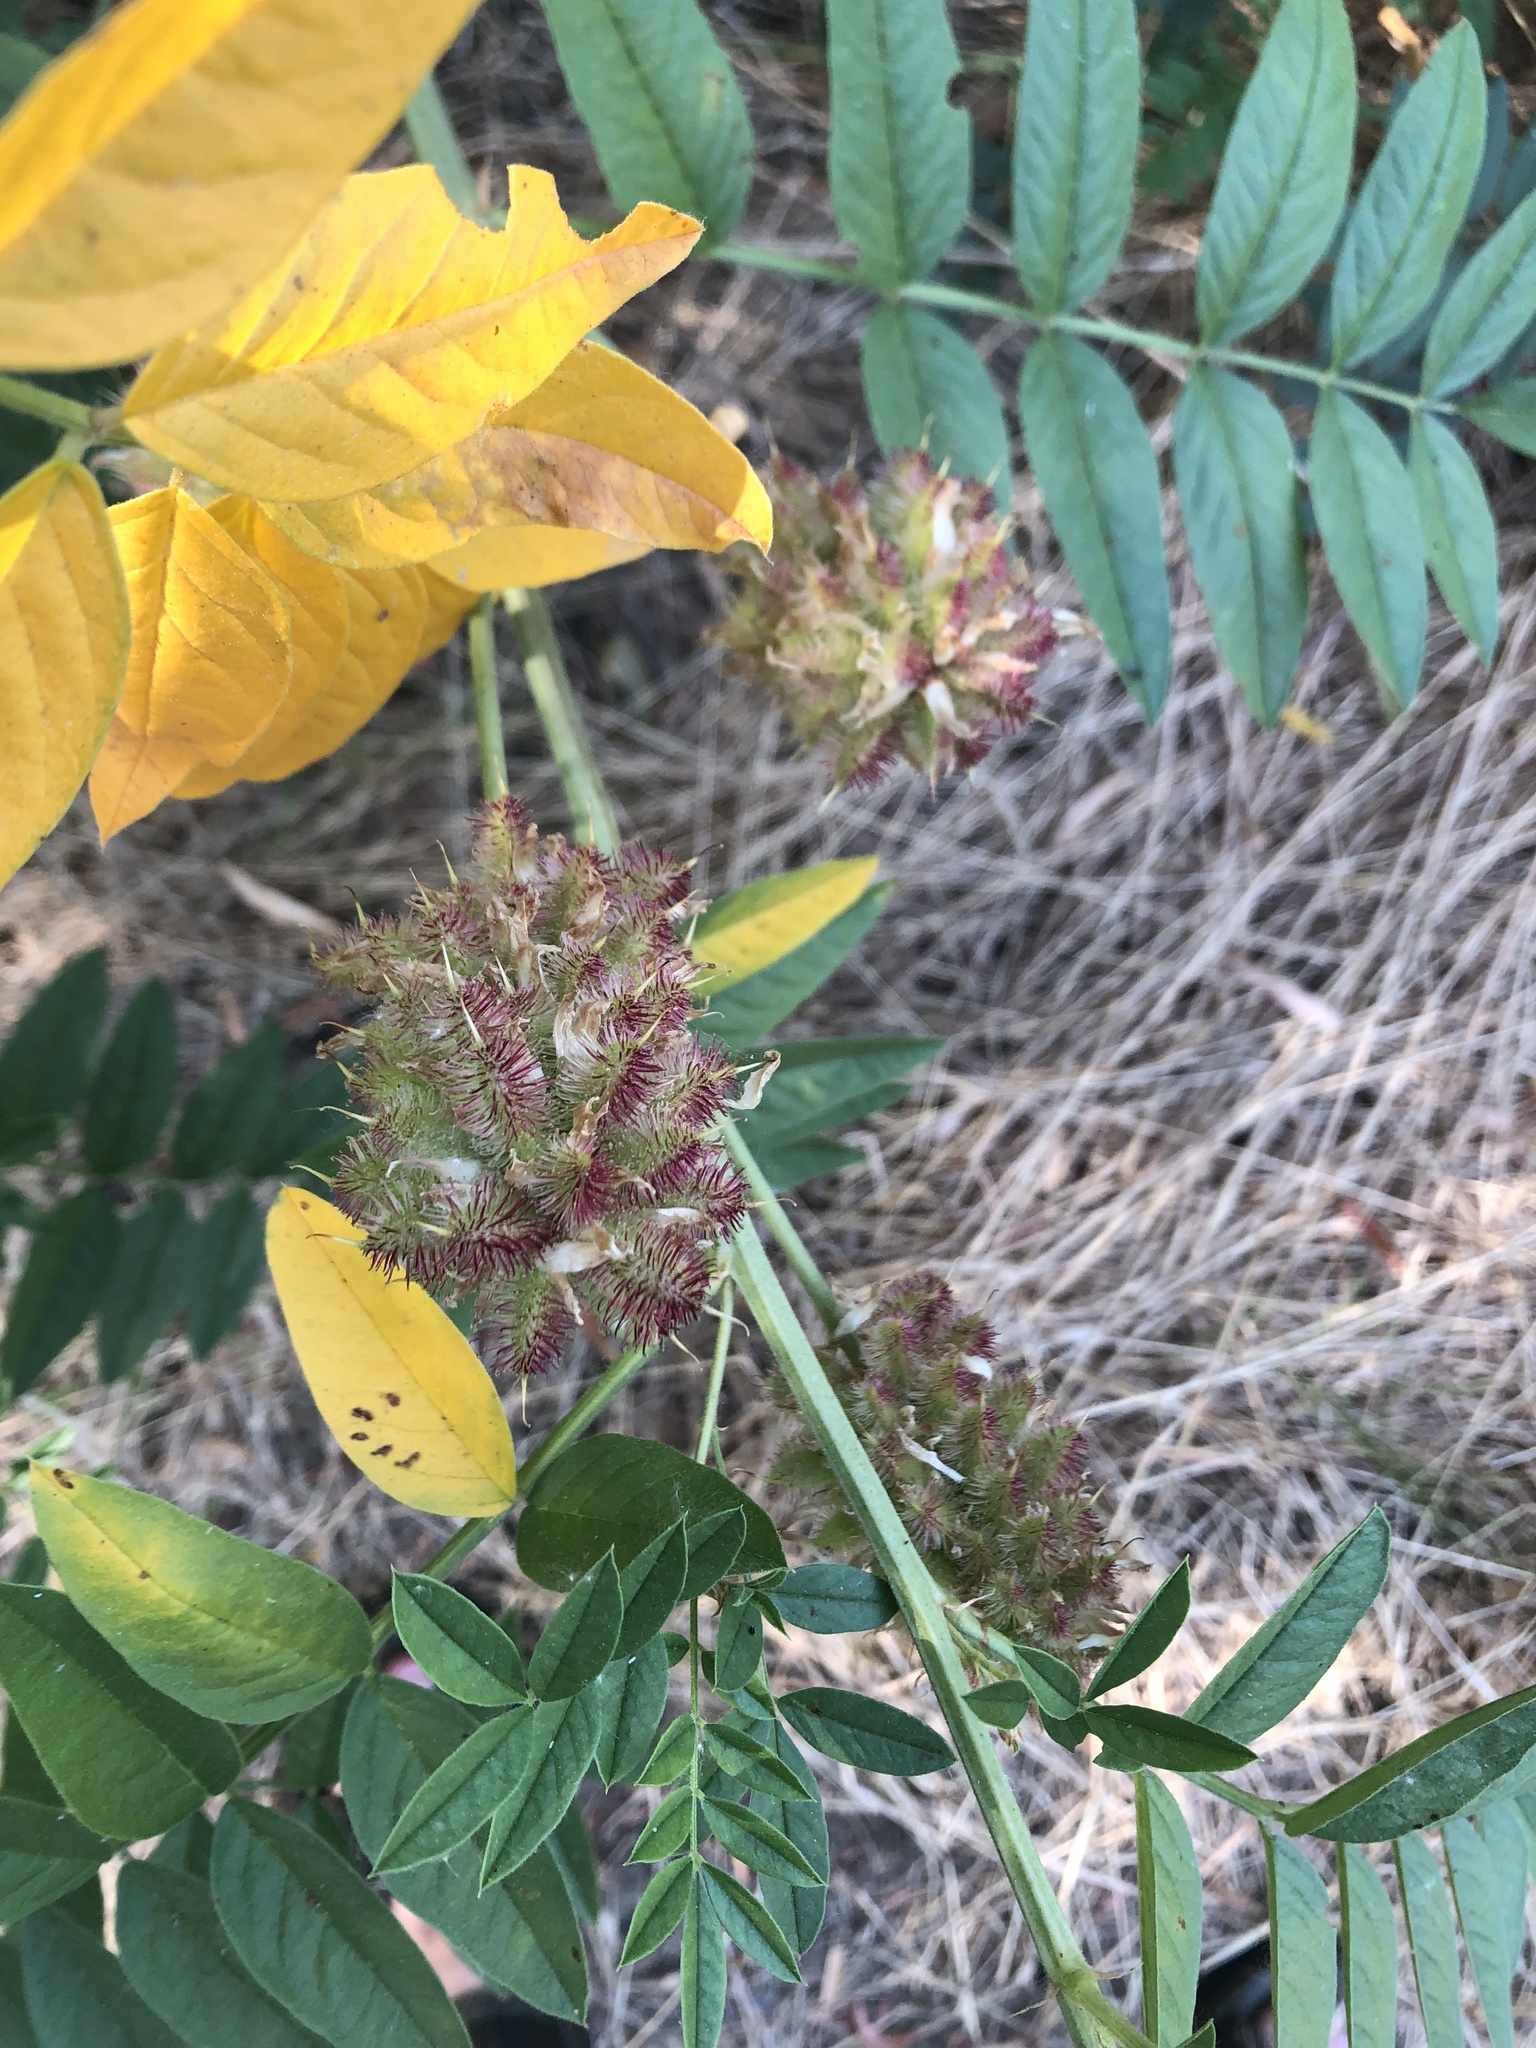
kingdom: Plantae
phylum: Tracheophyta
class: Magnoliopsida
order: Fabales
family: Fabaceae
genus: Glycyrrhiza
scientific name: Glycyrrhiza lepidota
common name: American liquorice
